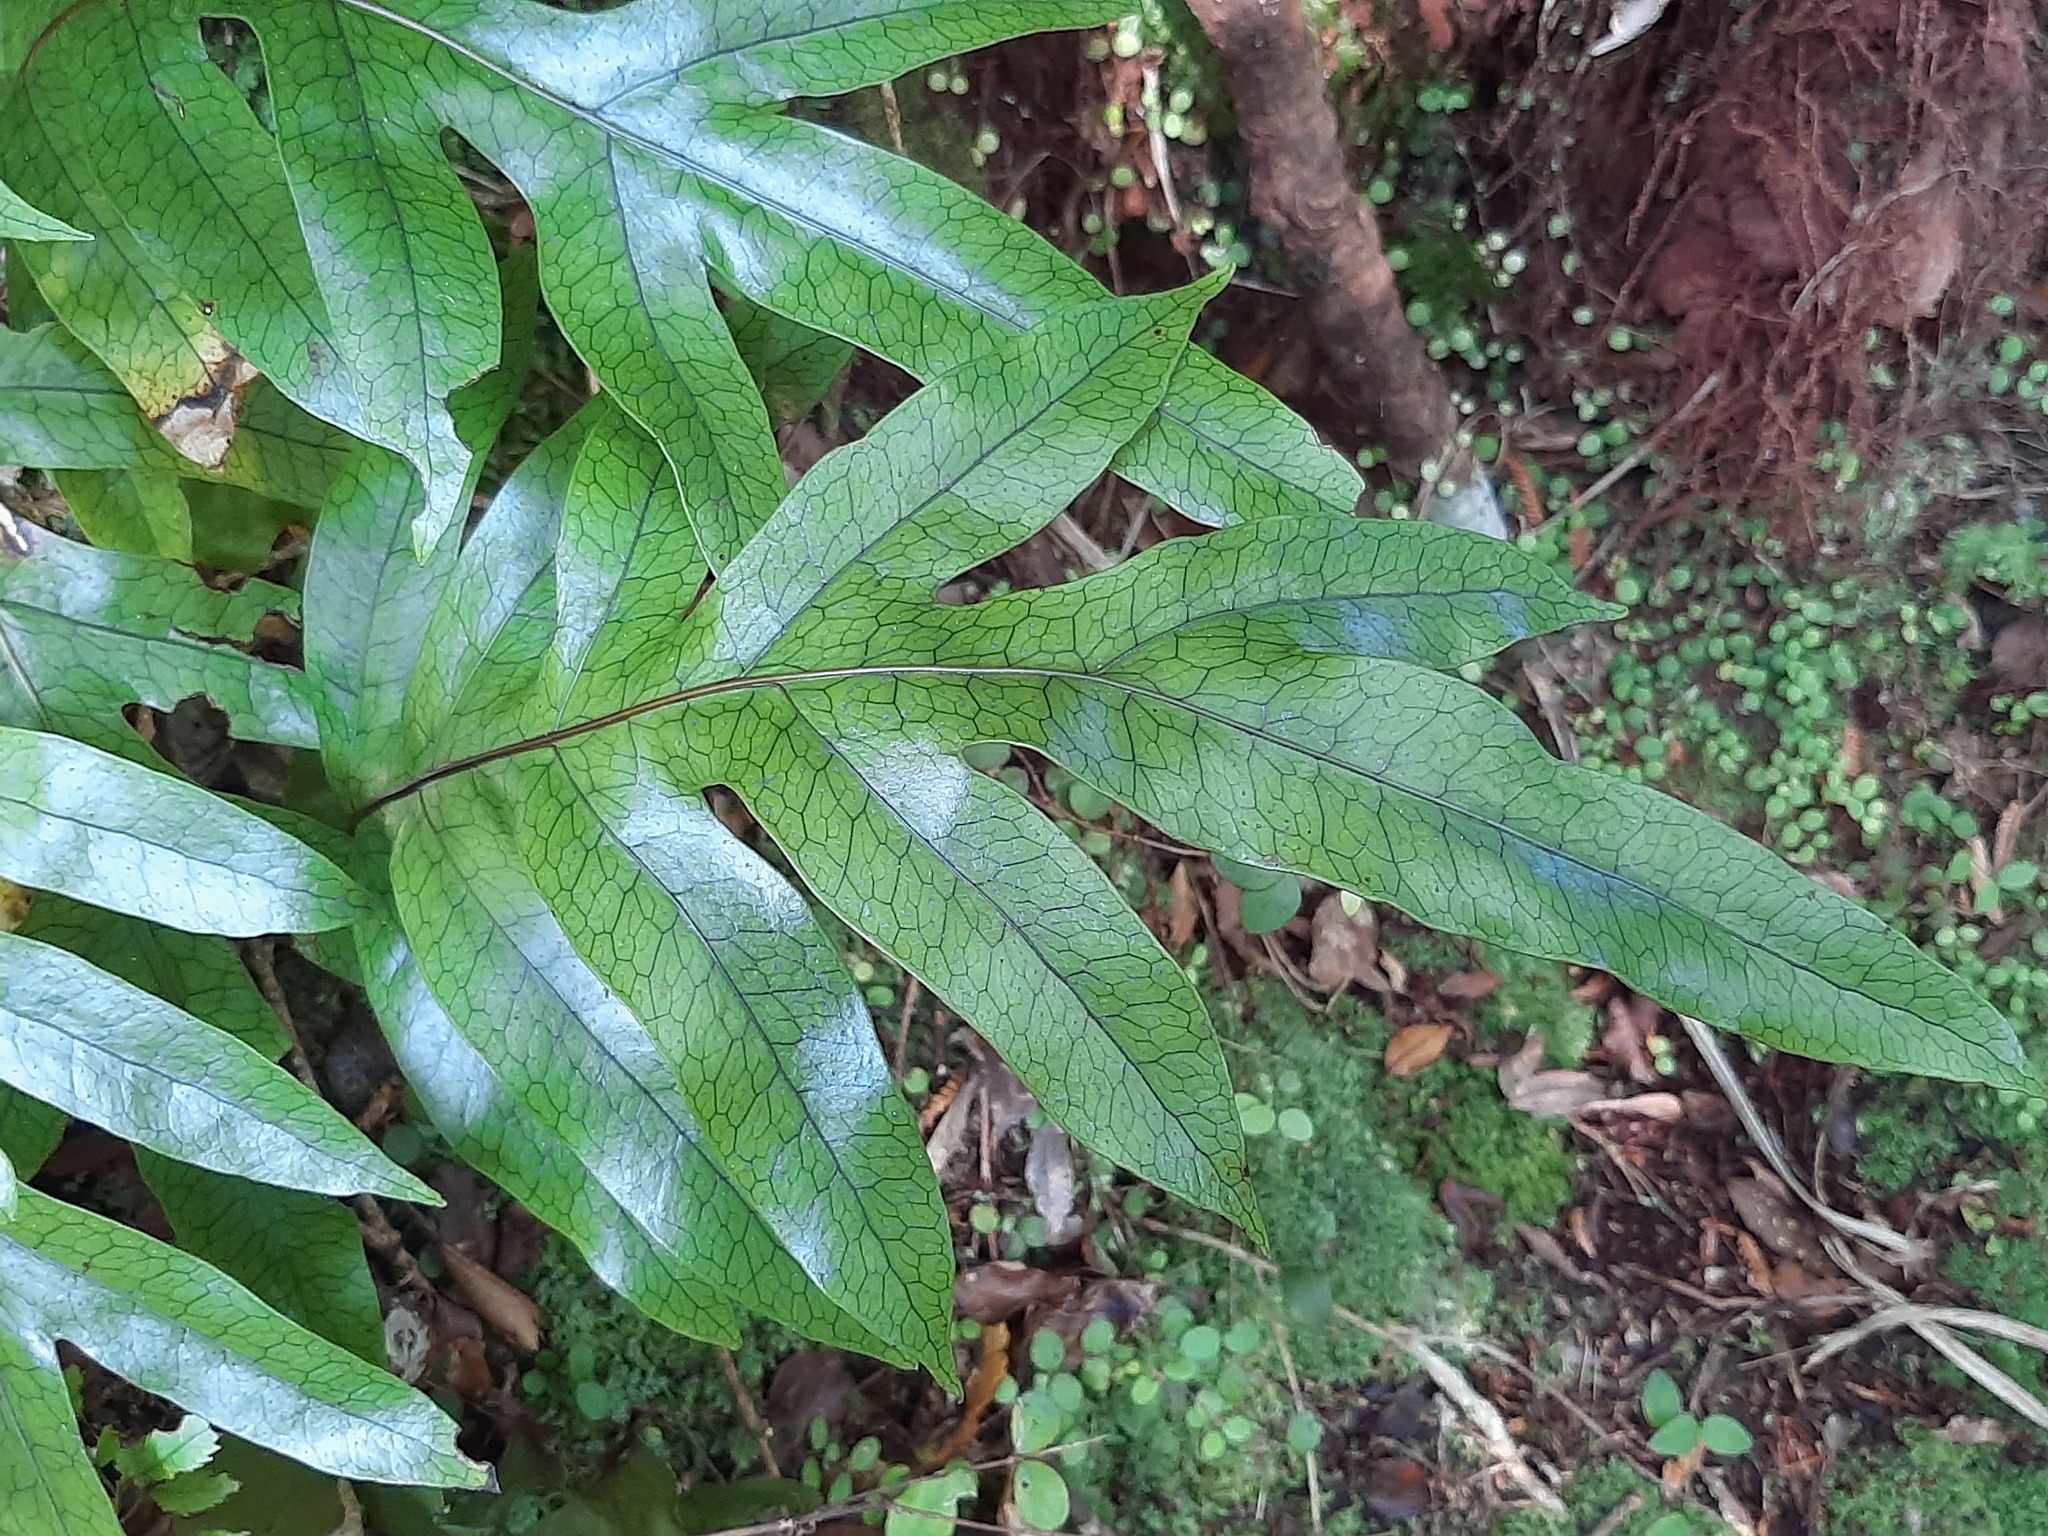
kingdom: Plantae
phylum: Tracheophyta
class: Polypodiopsida
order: Polypodiales
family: Polypodiaceae
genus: Lecanopteris
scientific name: Lecanopteris pustulata
